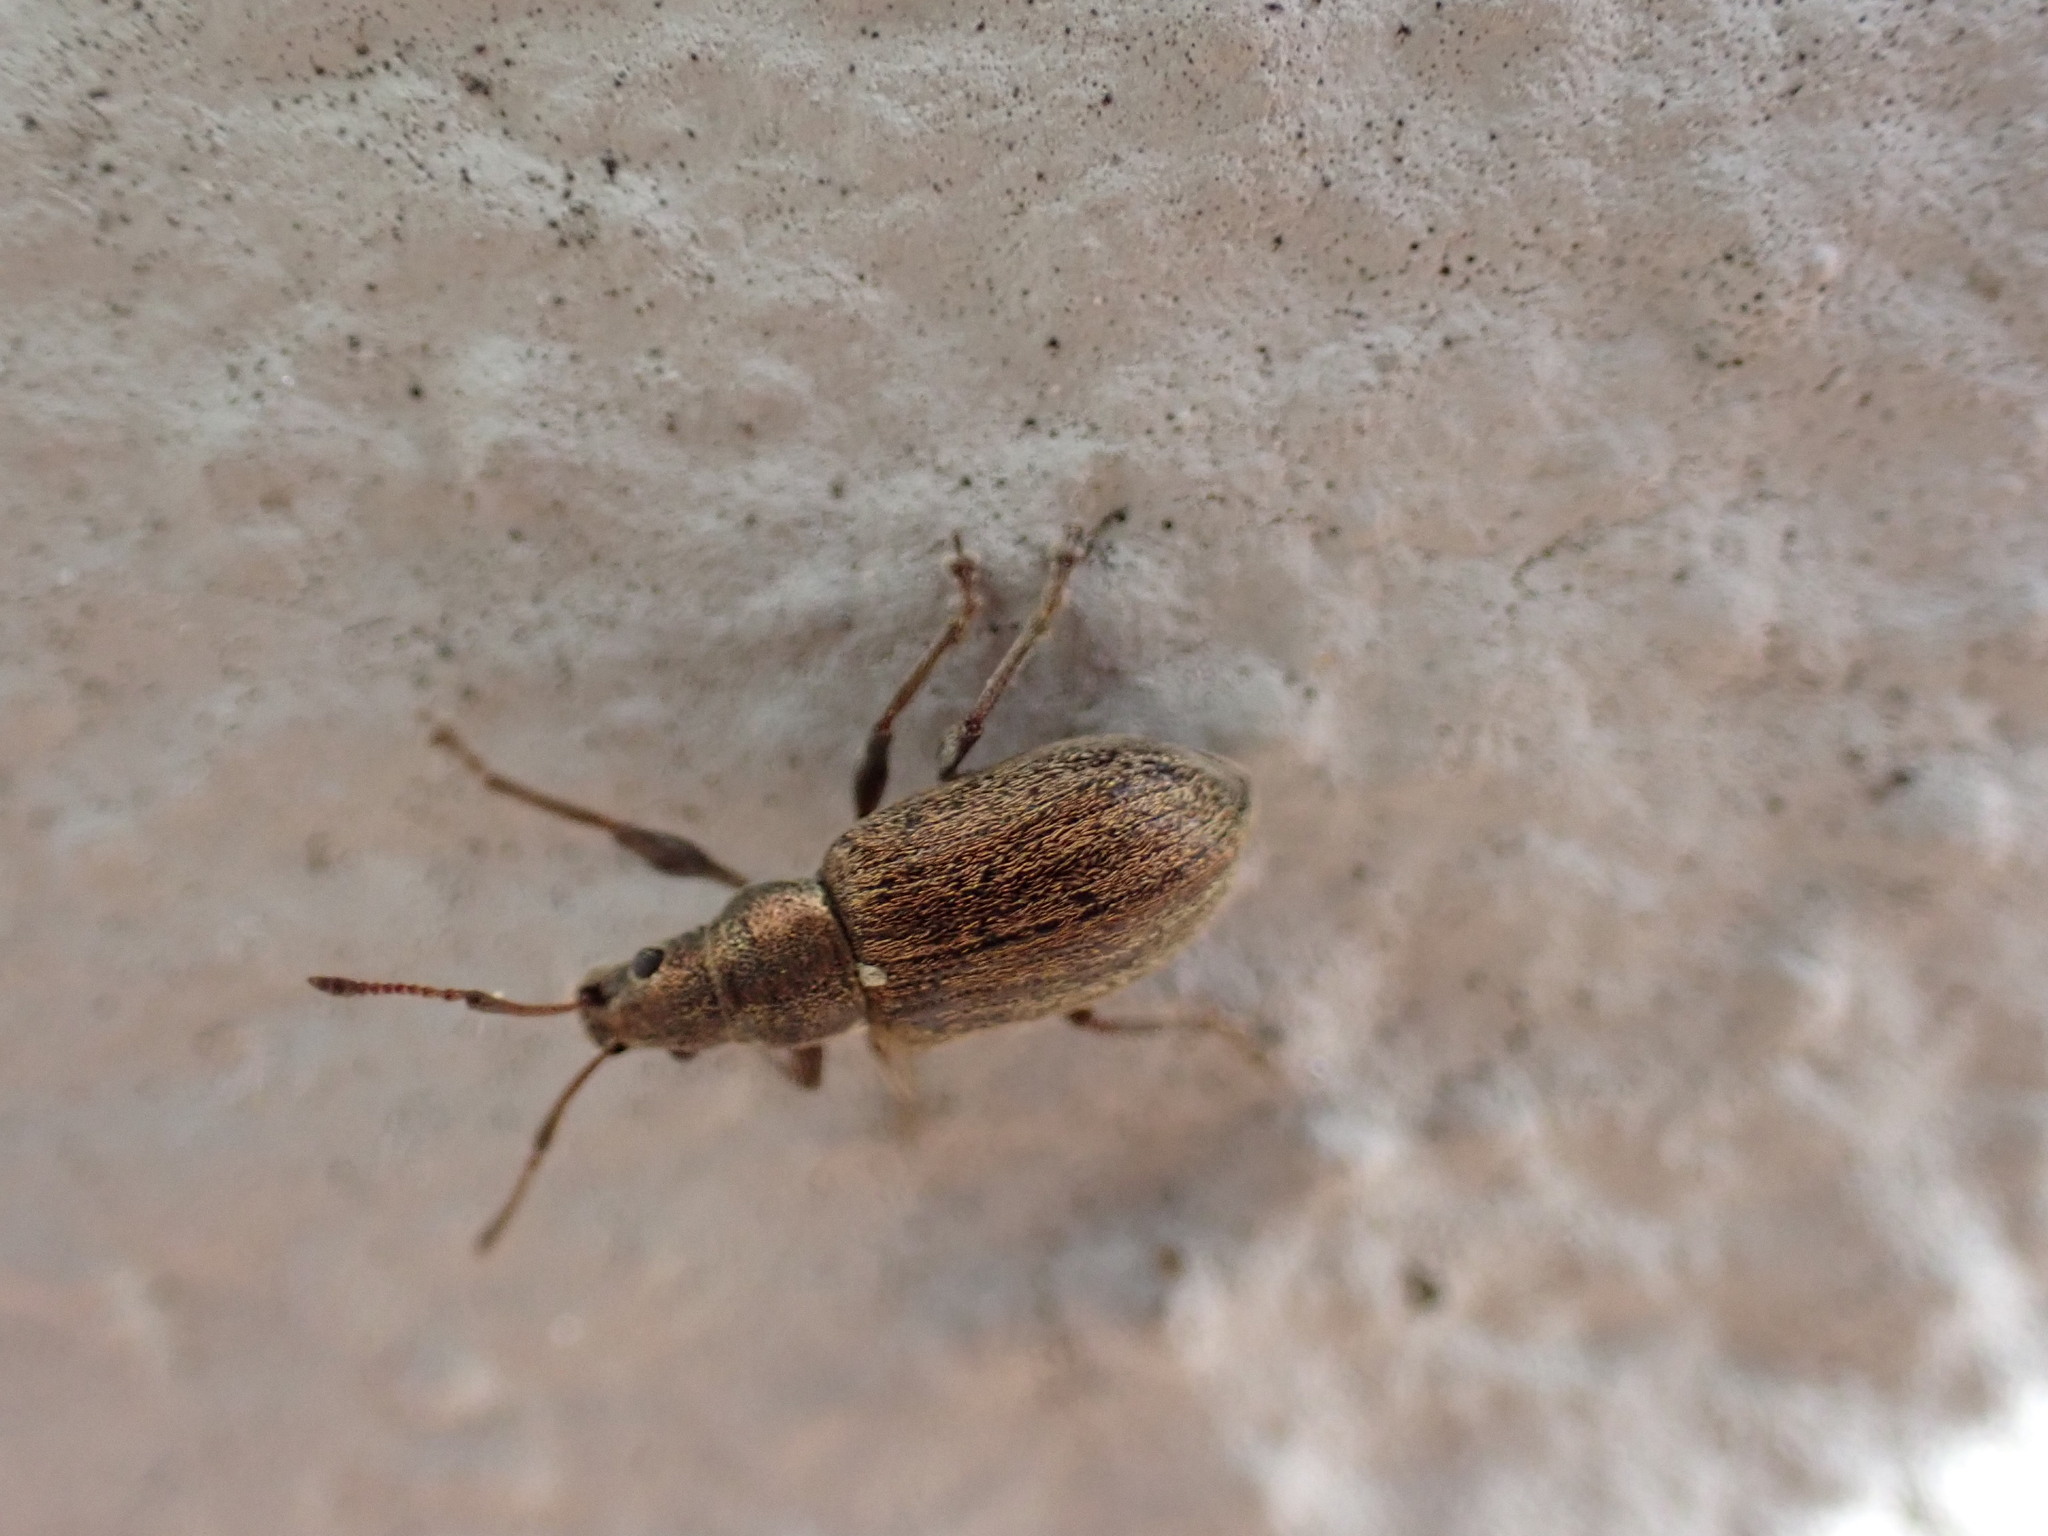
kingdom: Animalia
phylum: Arthropoda
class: Insecta
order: Coleoptera
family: Curculionidae
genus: Phyllobius
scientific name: Phyllobius pyri
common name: Common leaf weevil
